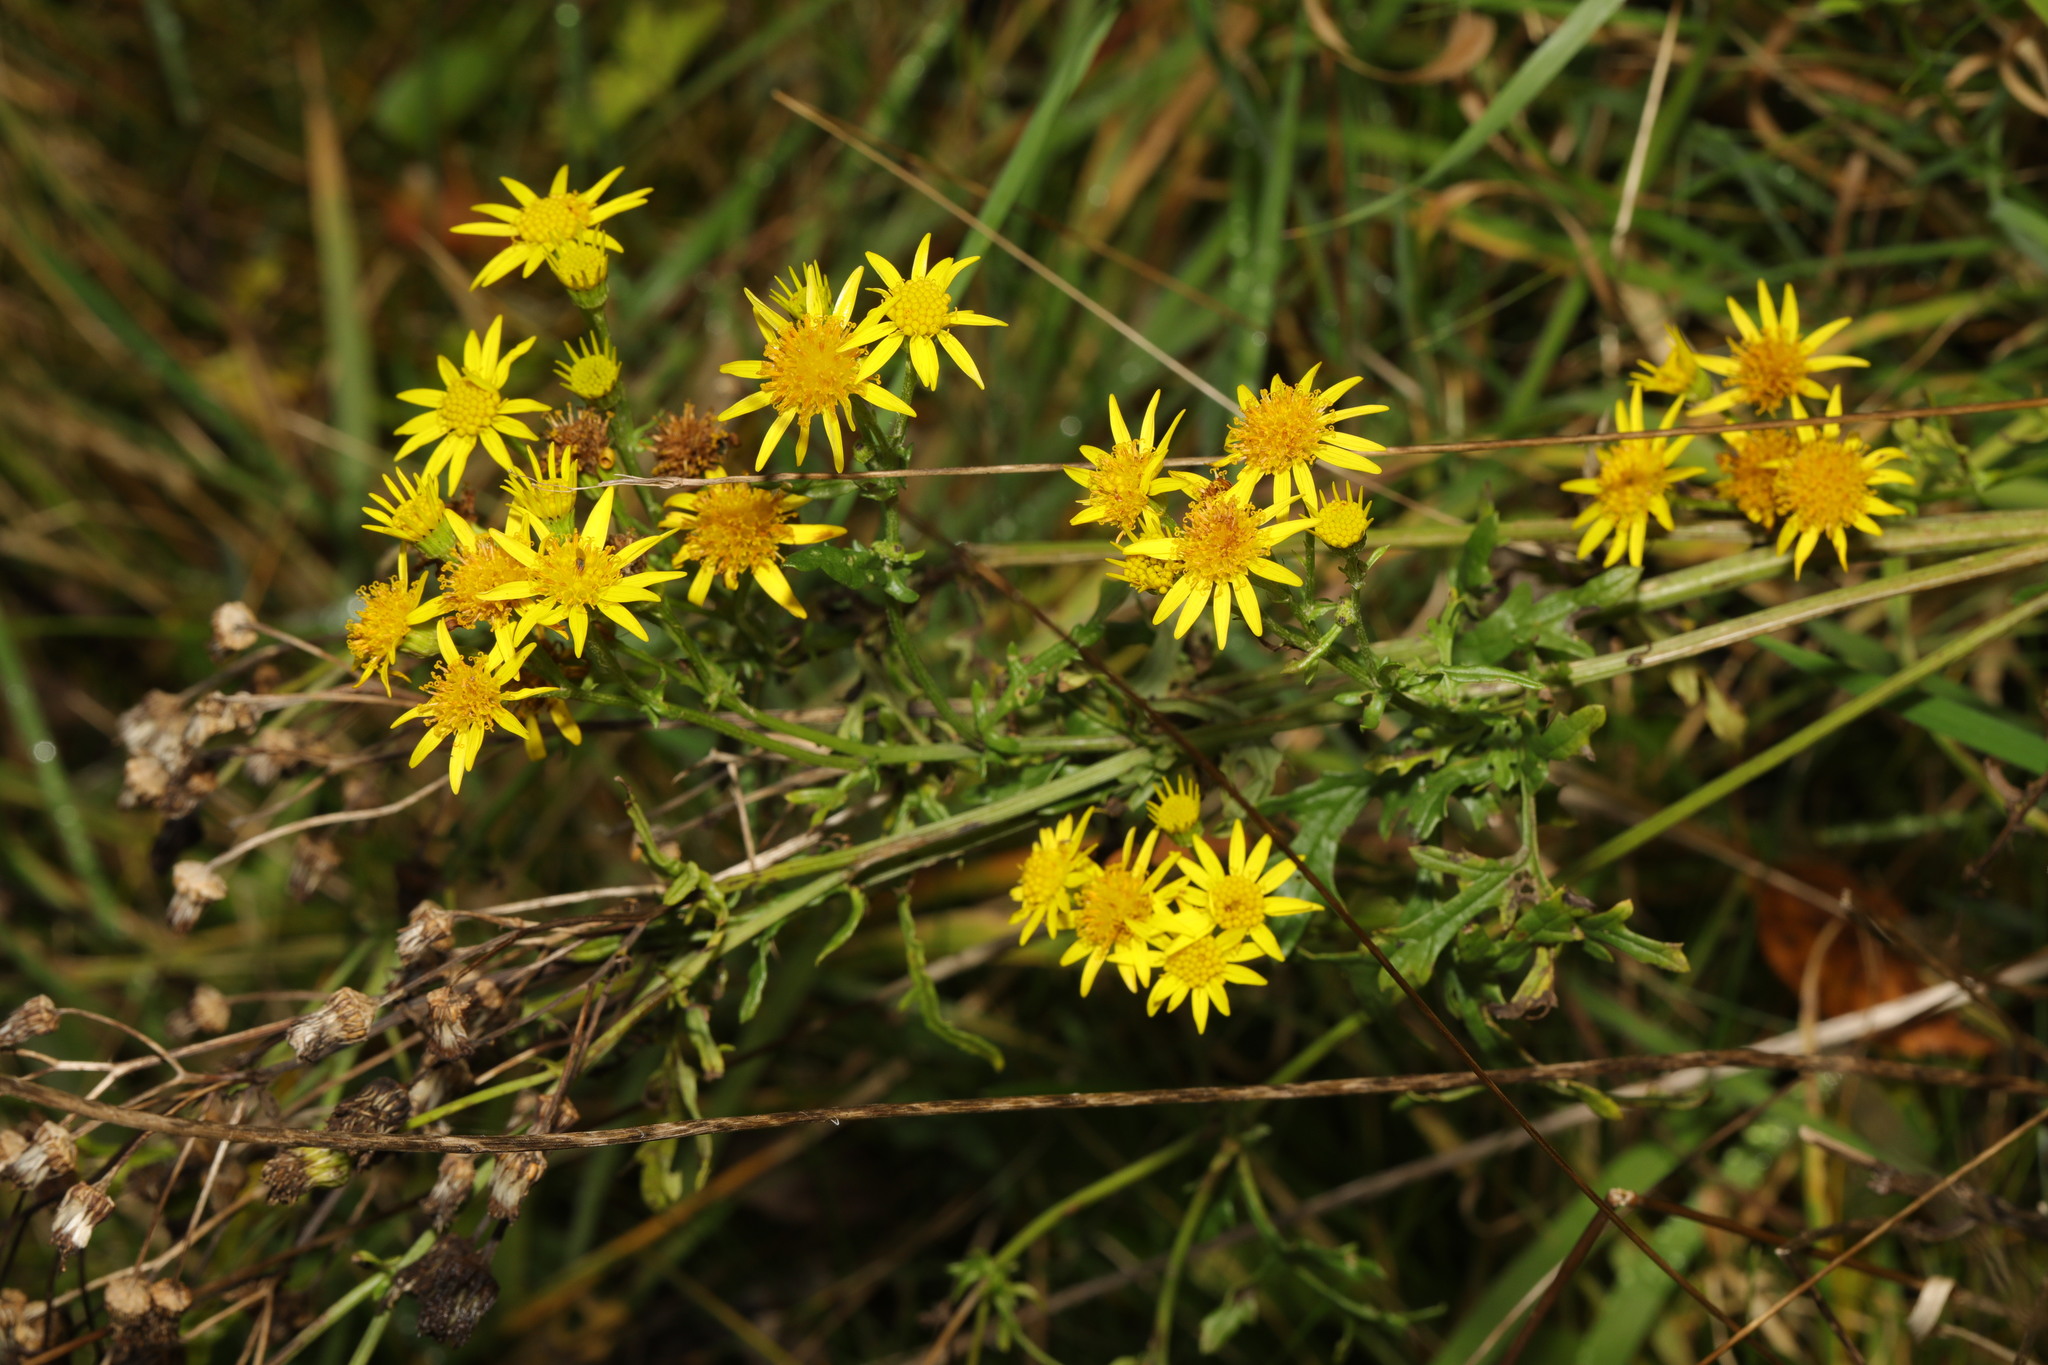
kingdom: Plantae
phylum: Tracheophyta
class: Magnoliopsida
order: Asterales
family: Asteraceae
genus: Jacobaea
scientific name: Jacobaea vulgaris
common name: Stinking willie
